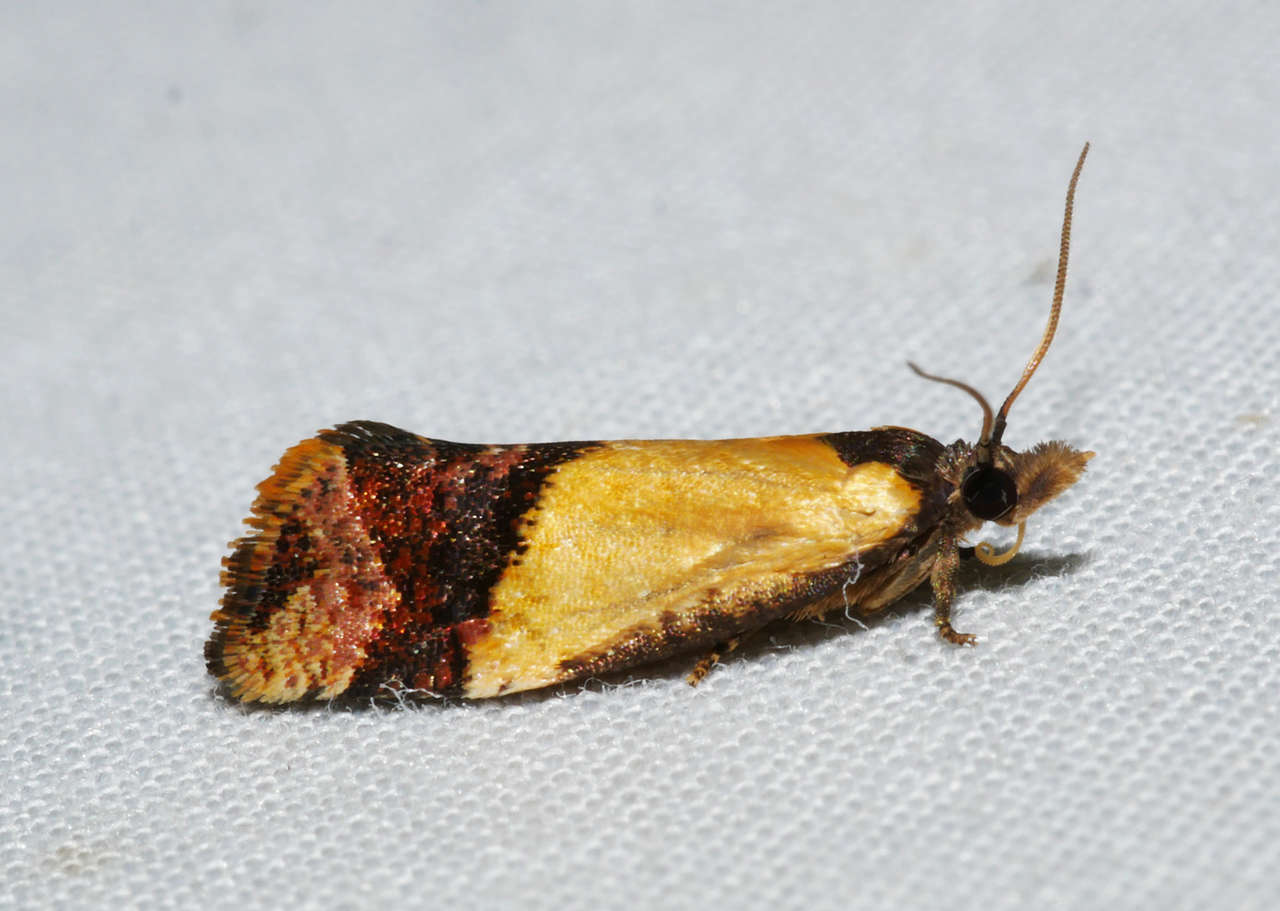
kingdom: Animalia
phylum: Arthropoda
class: Insecta
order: Lepidoptera
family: Tortricidae
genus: Epitymbia
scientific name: Epitymbia cosmota
